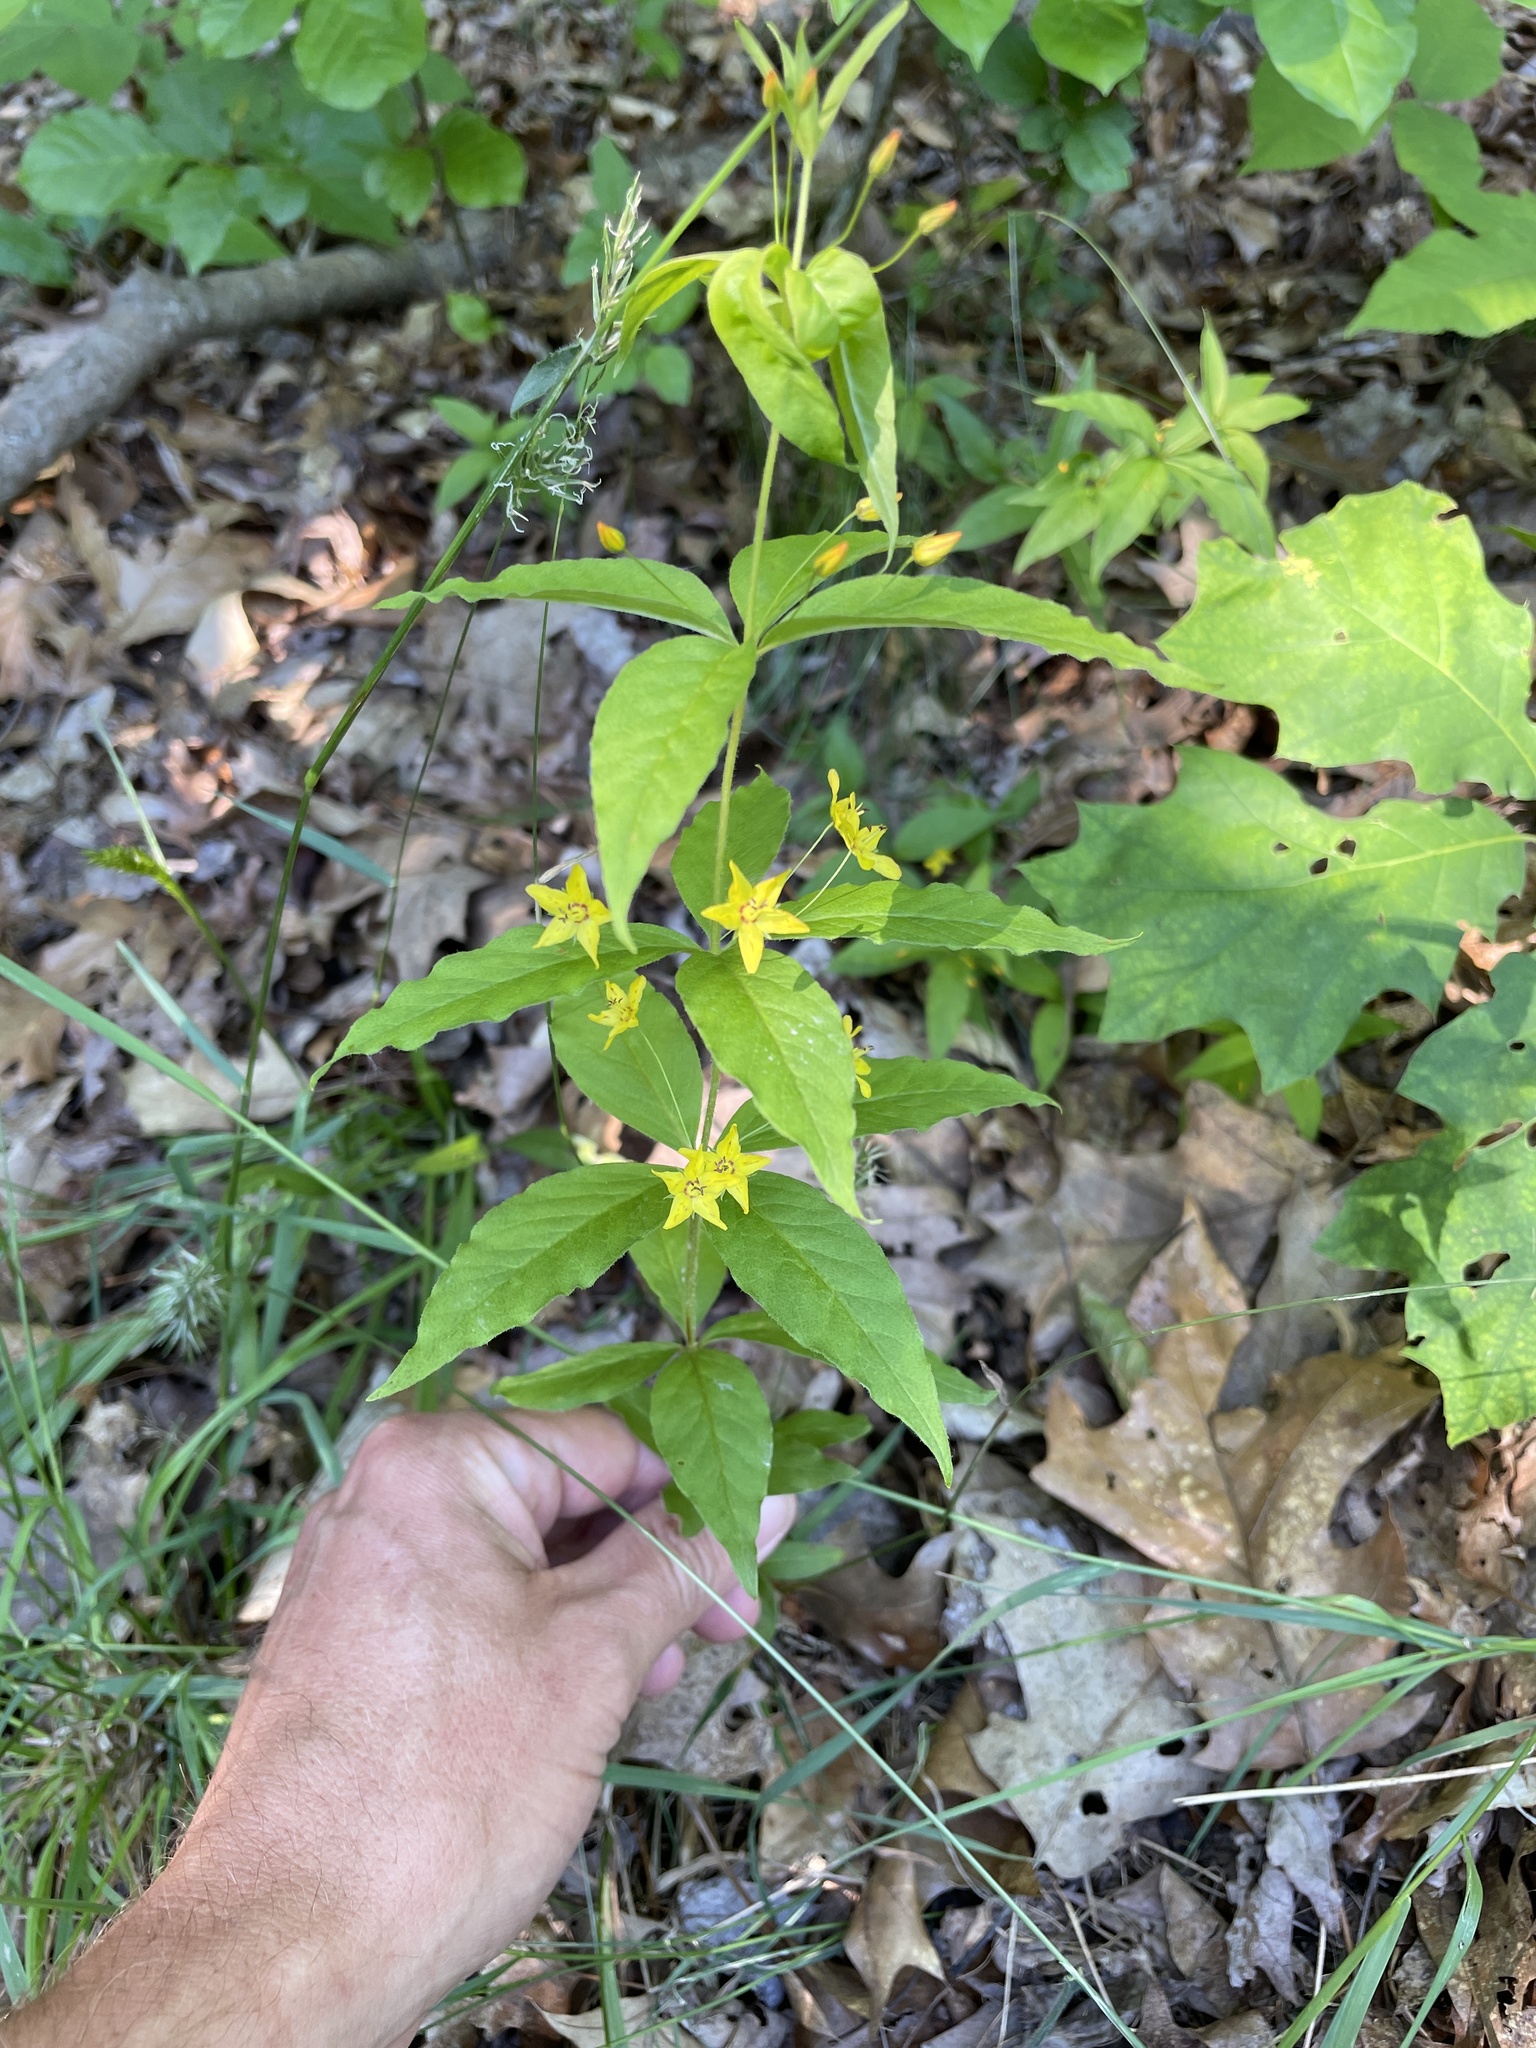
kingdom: Plantae
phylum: Tracheophyta
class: Magnoliopsida
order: Ericales
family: Primulaceae
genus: Lysimachia
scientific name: Lysimachia quadrifolia
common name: Whorled loosestrife
